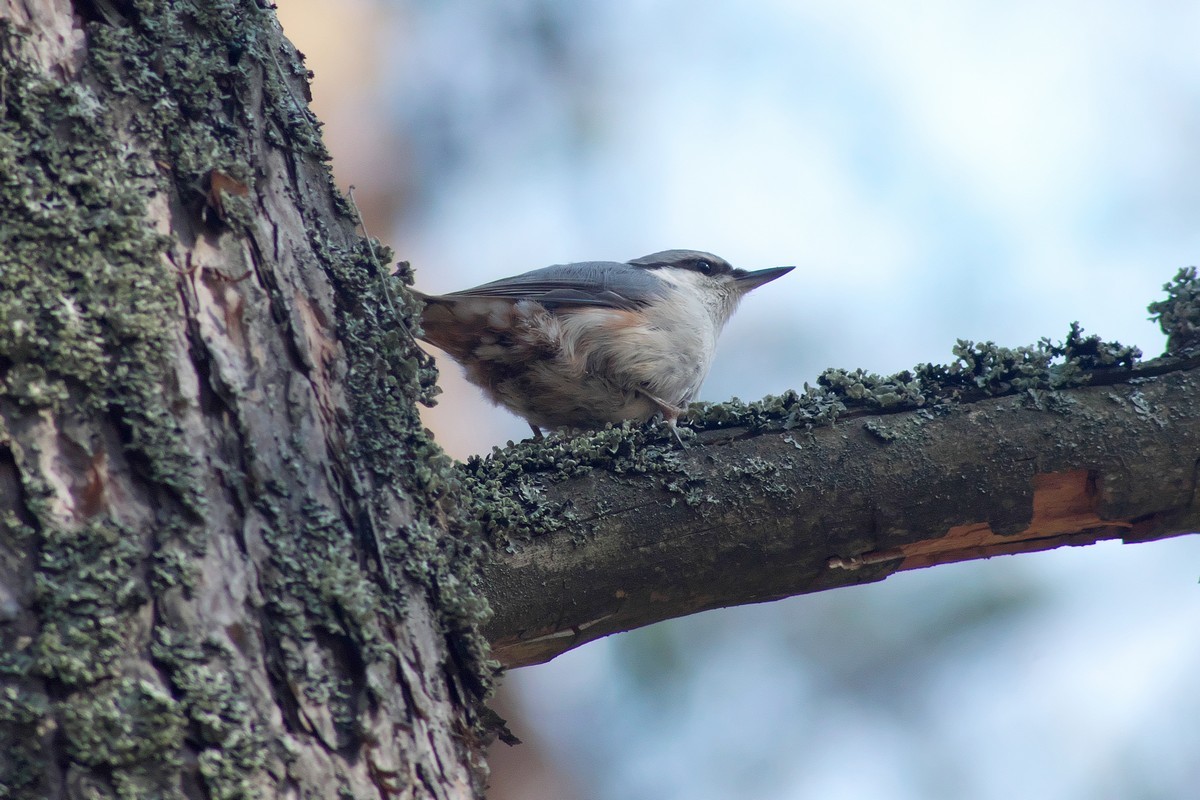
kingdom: Animalia
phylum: Chordata
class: Aves
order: Passeriformes
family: Sittidae
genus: Sitta
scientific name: Sitta europaea
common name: Eurasian nuthatch
